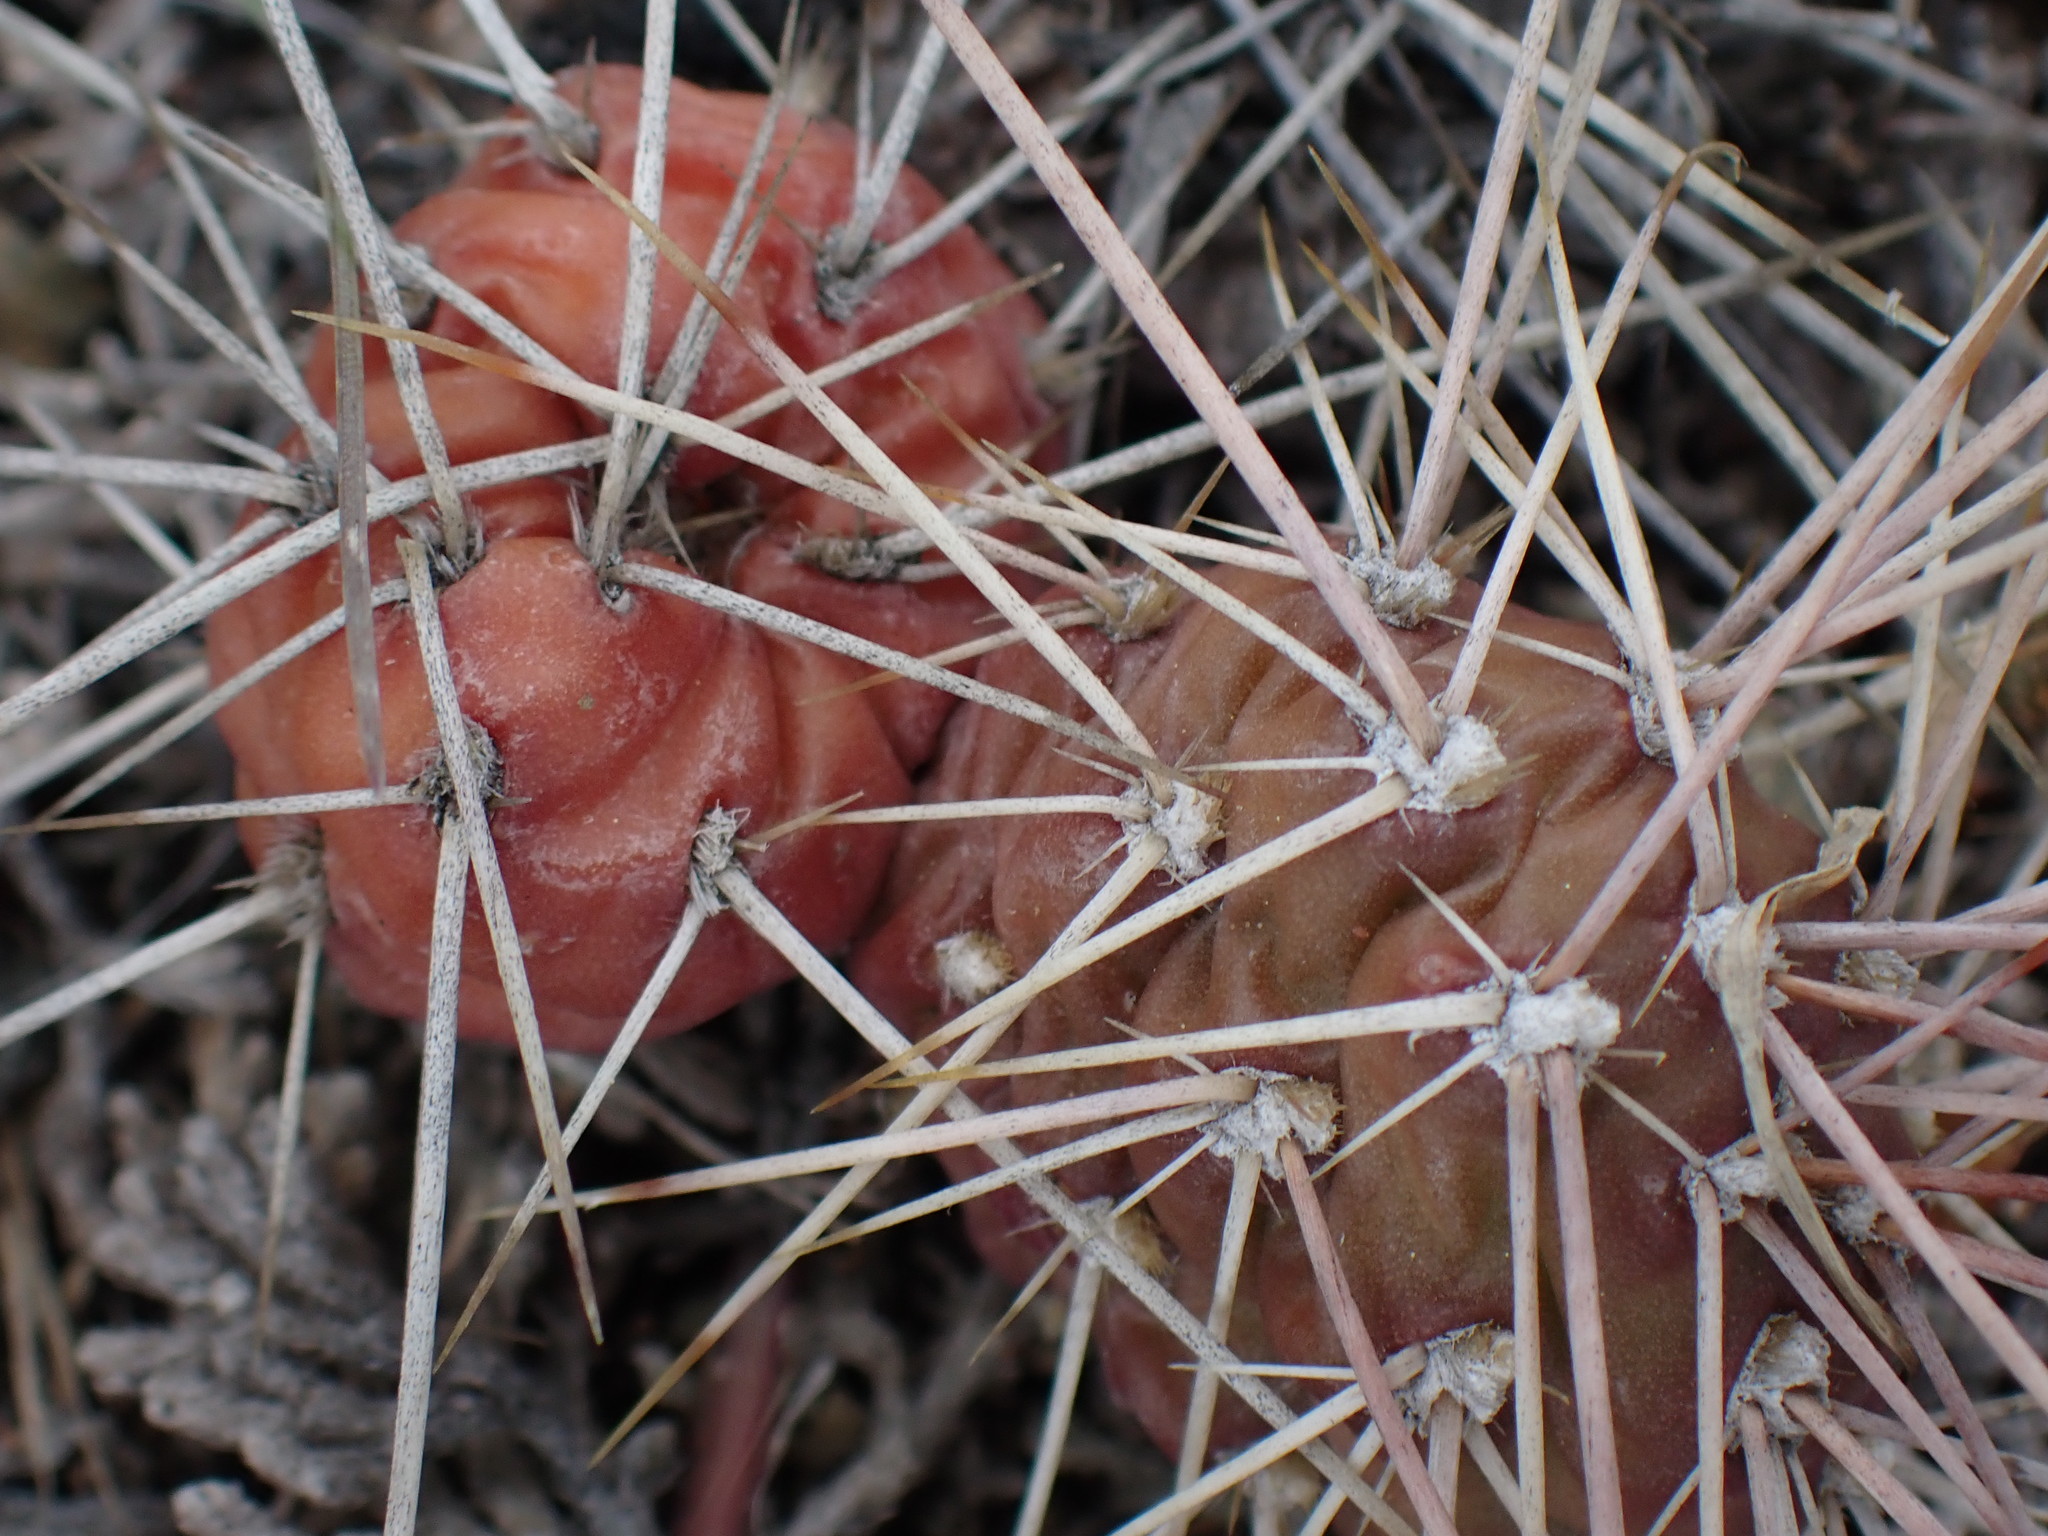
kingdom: Plantae
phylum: Tracheophyta
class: Magnoliopsida
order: Caryophyllales
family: Cactaceae
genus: Opuntia
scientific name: Opuntia fragilis
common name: Brittle cactus
